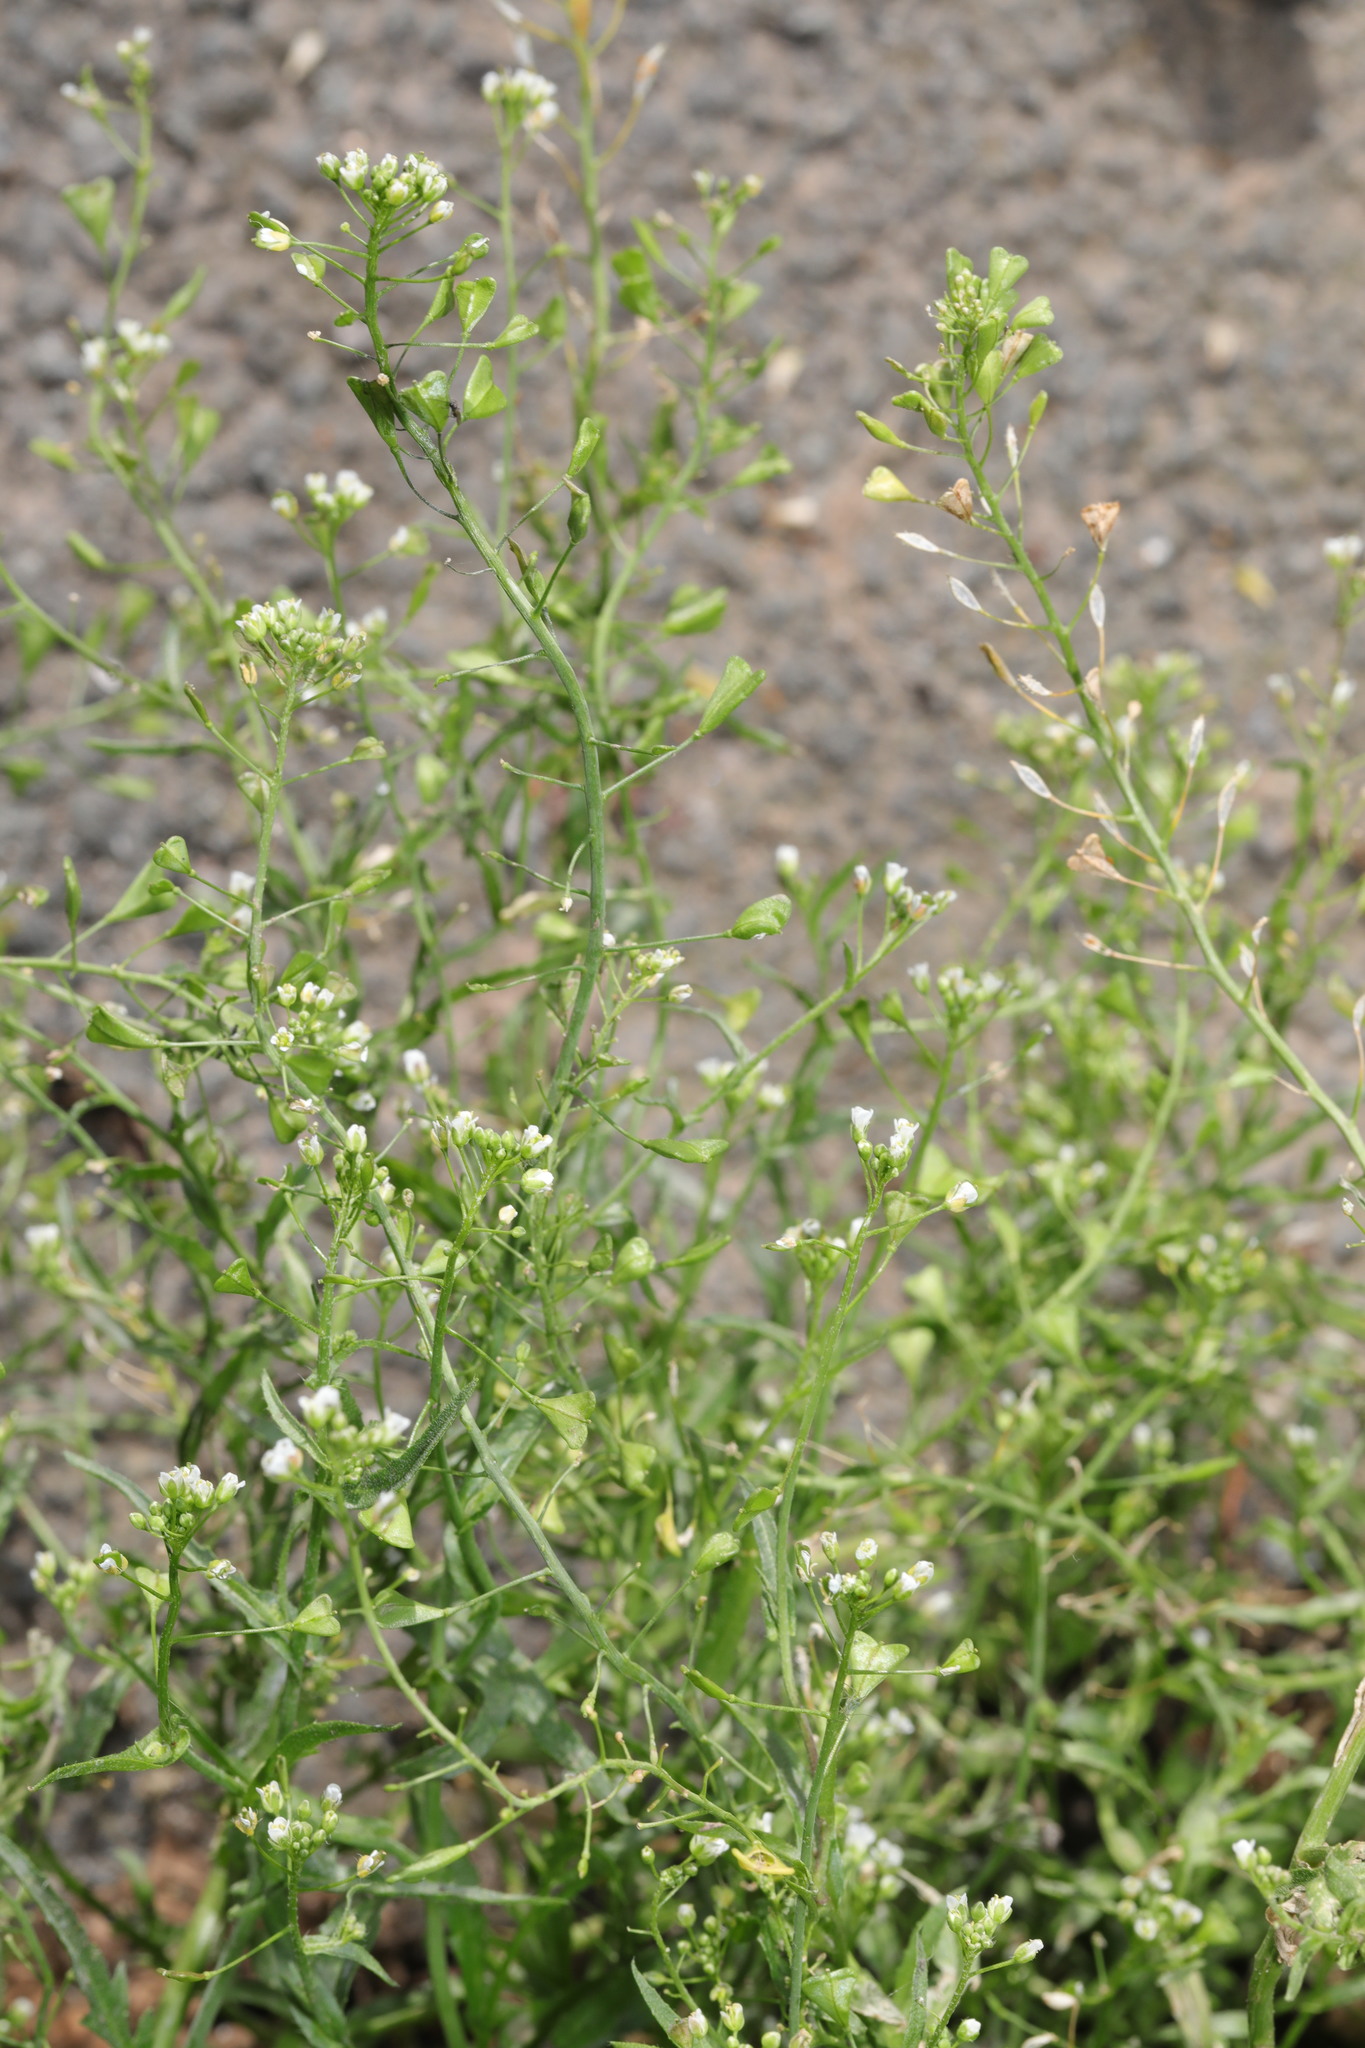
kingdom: Plantae
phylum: Tracheophyta
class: Magnoliopsida
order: Brassicales
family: Brassicaceae
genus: Capsella
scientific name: Capsella bursa-pastoris
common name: Shepherd's purse
